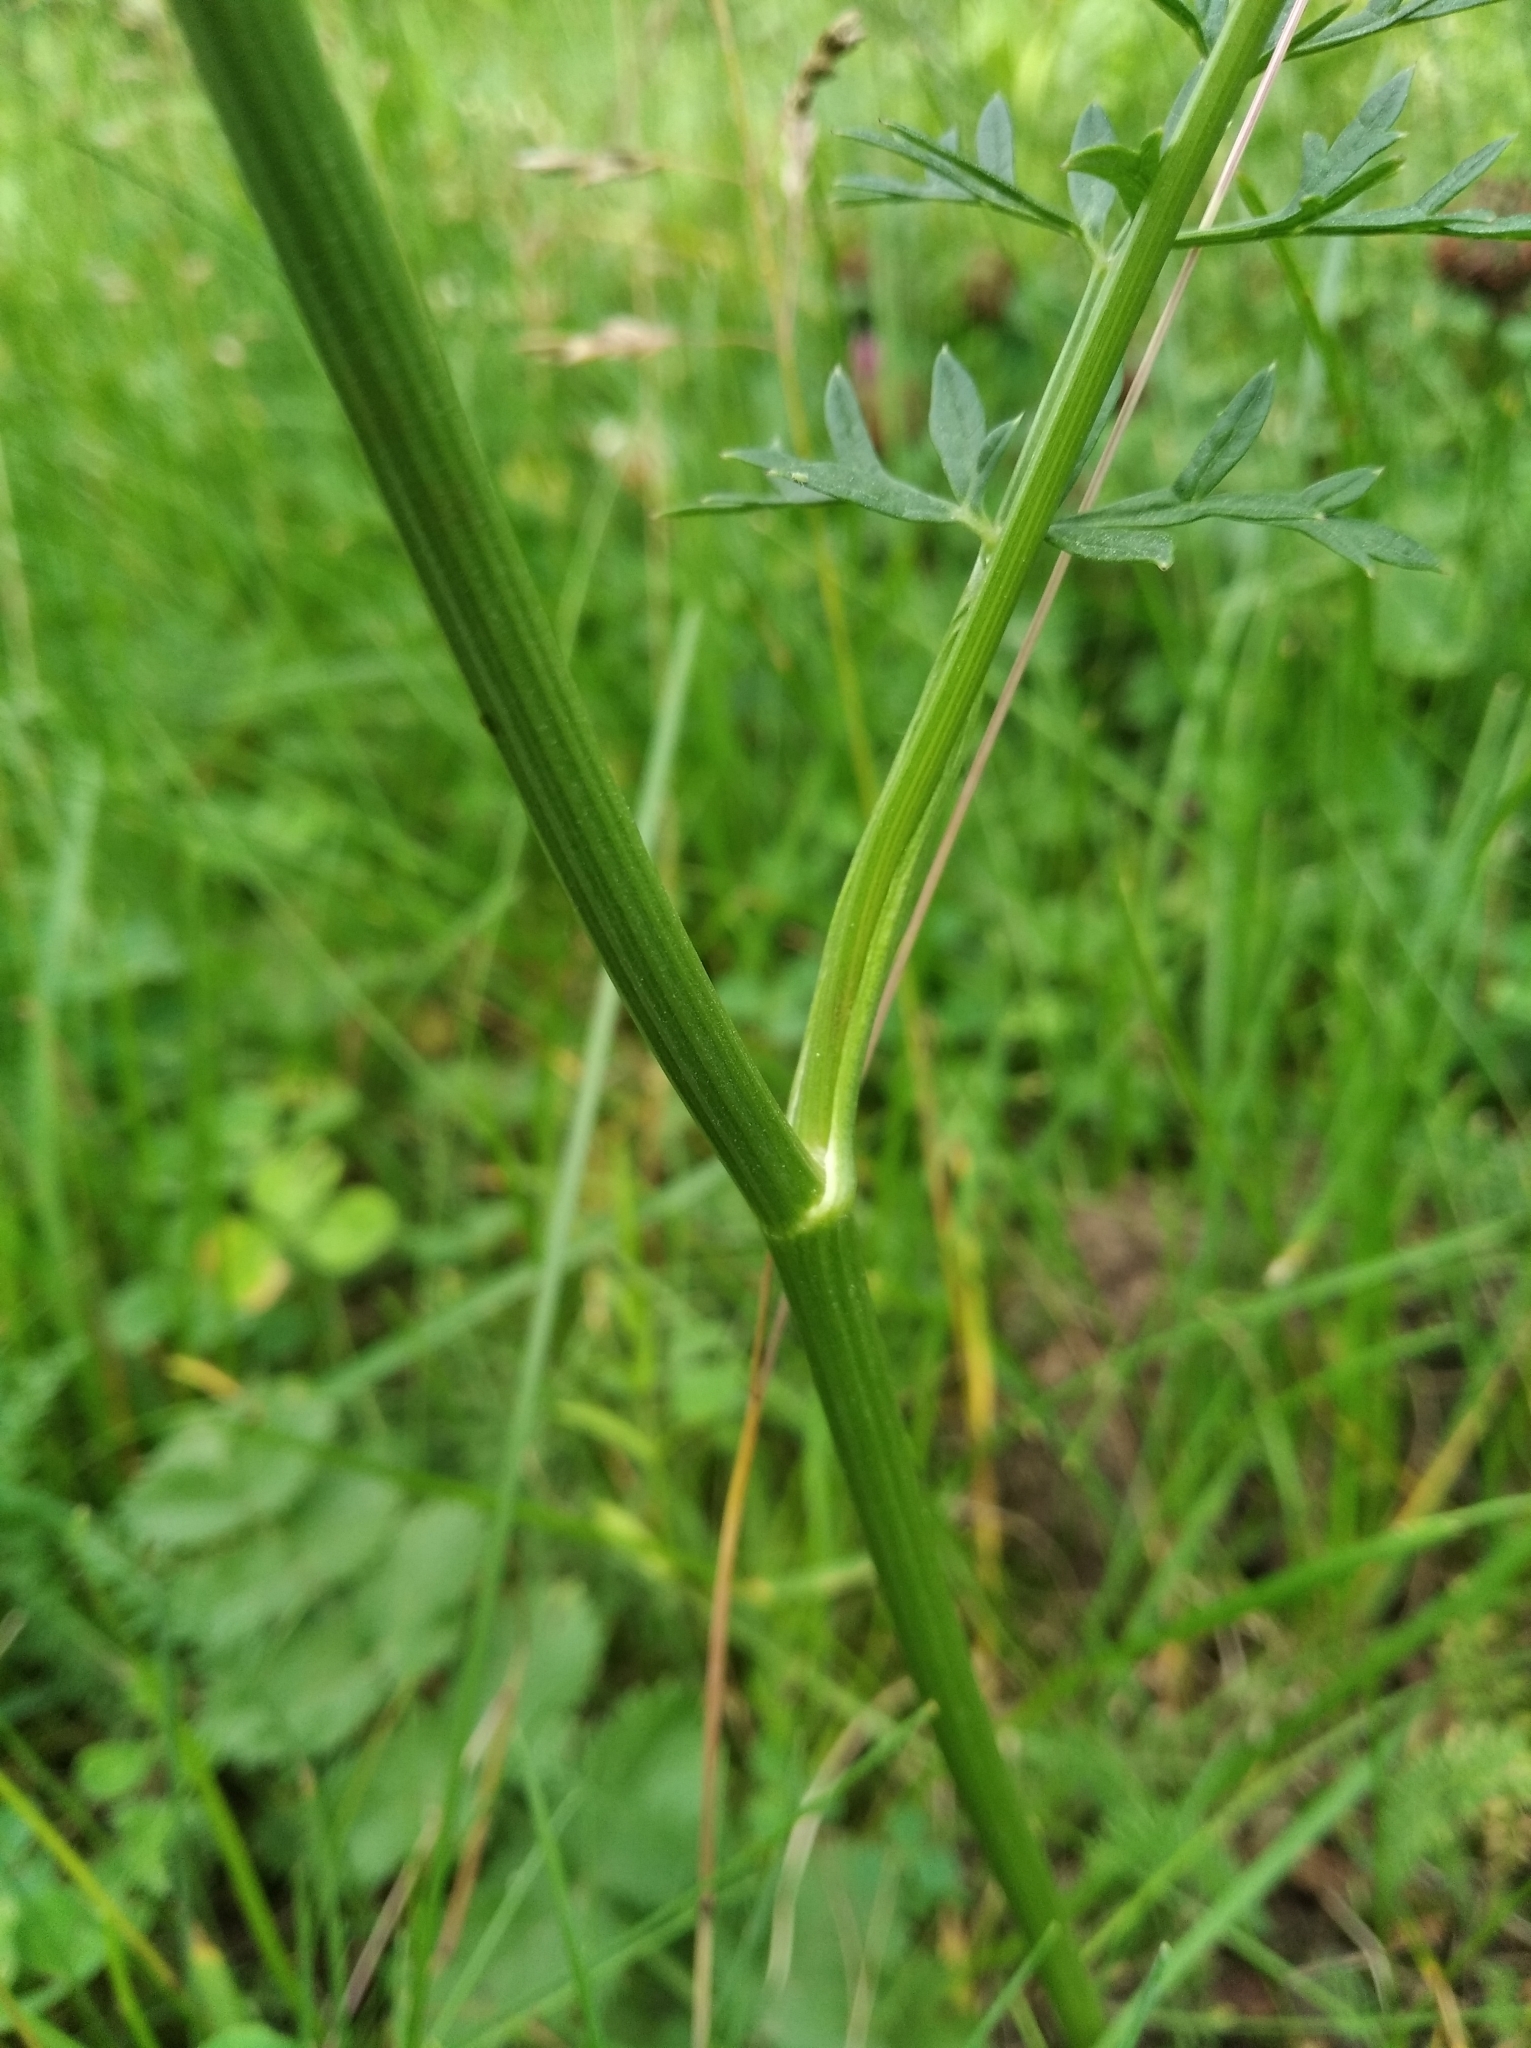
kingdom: Plantae
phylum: Tracheophyta
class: Magnoliopsida
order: Apiales
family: Apiaceae
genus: Pimpinella
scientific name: Pimpinella saxifraga
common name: Burnet-saxifrage
